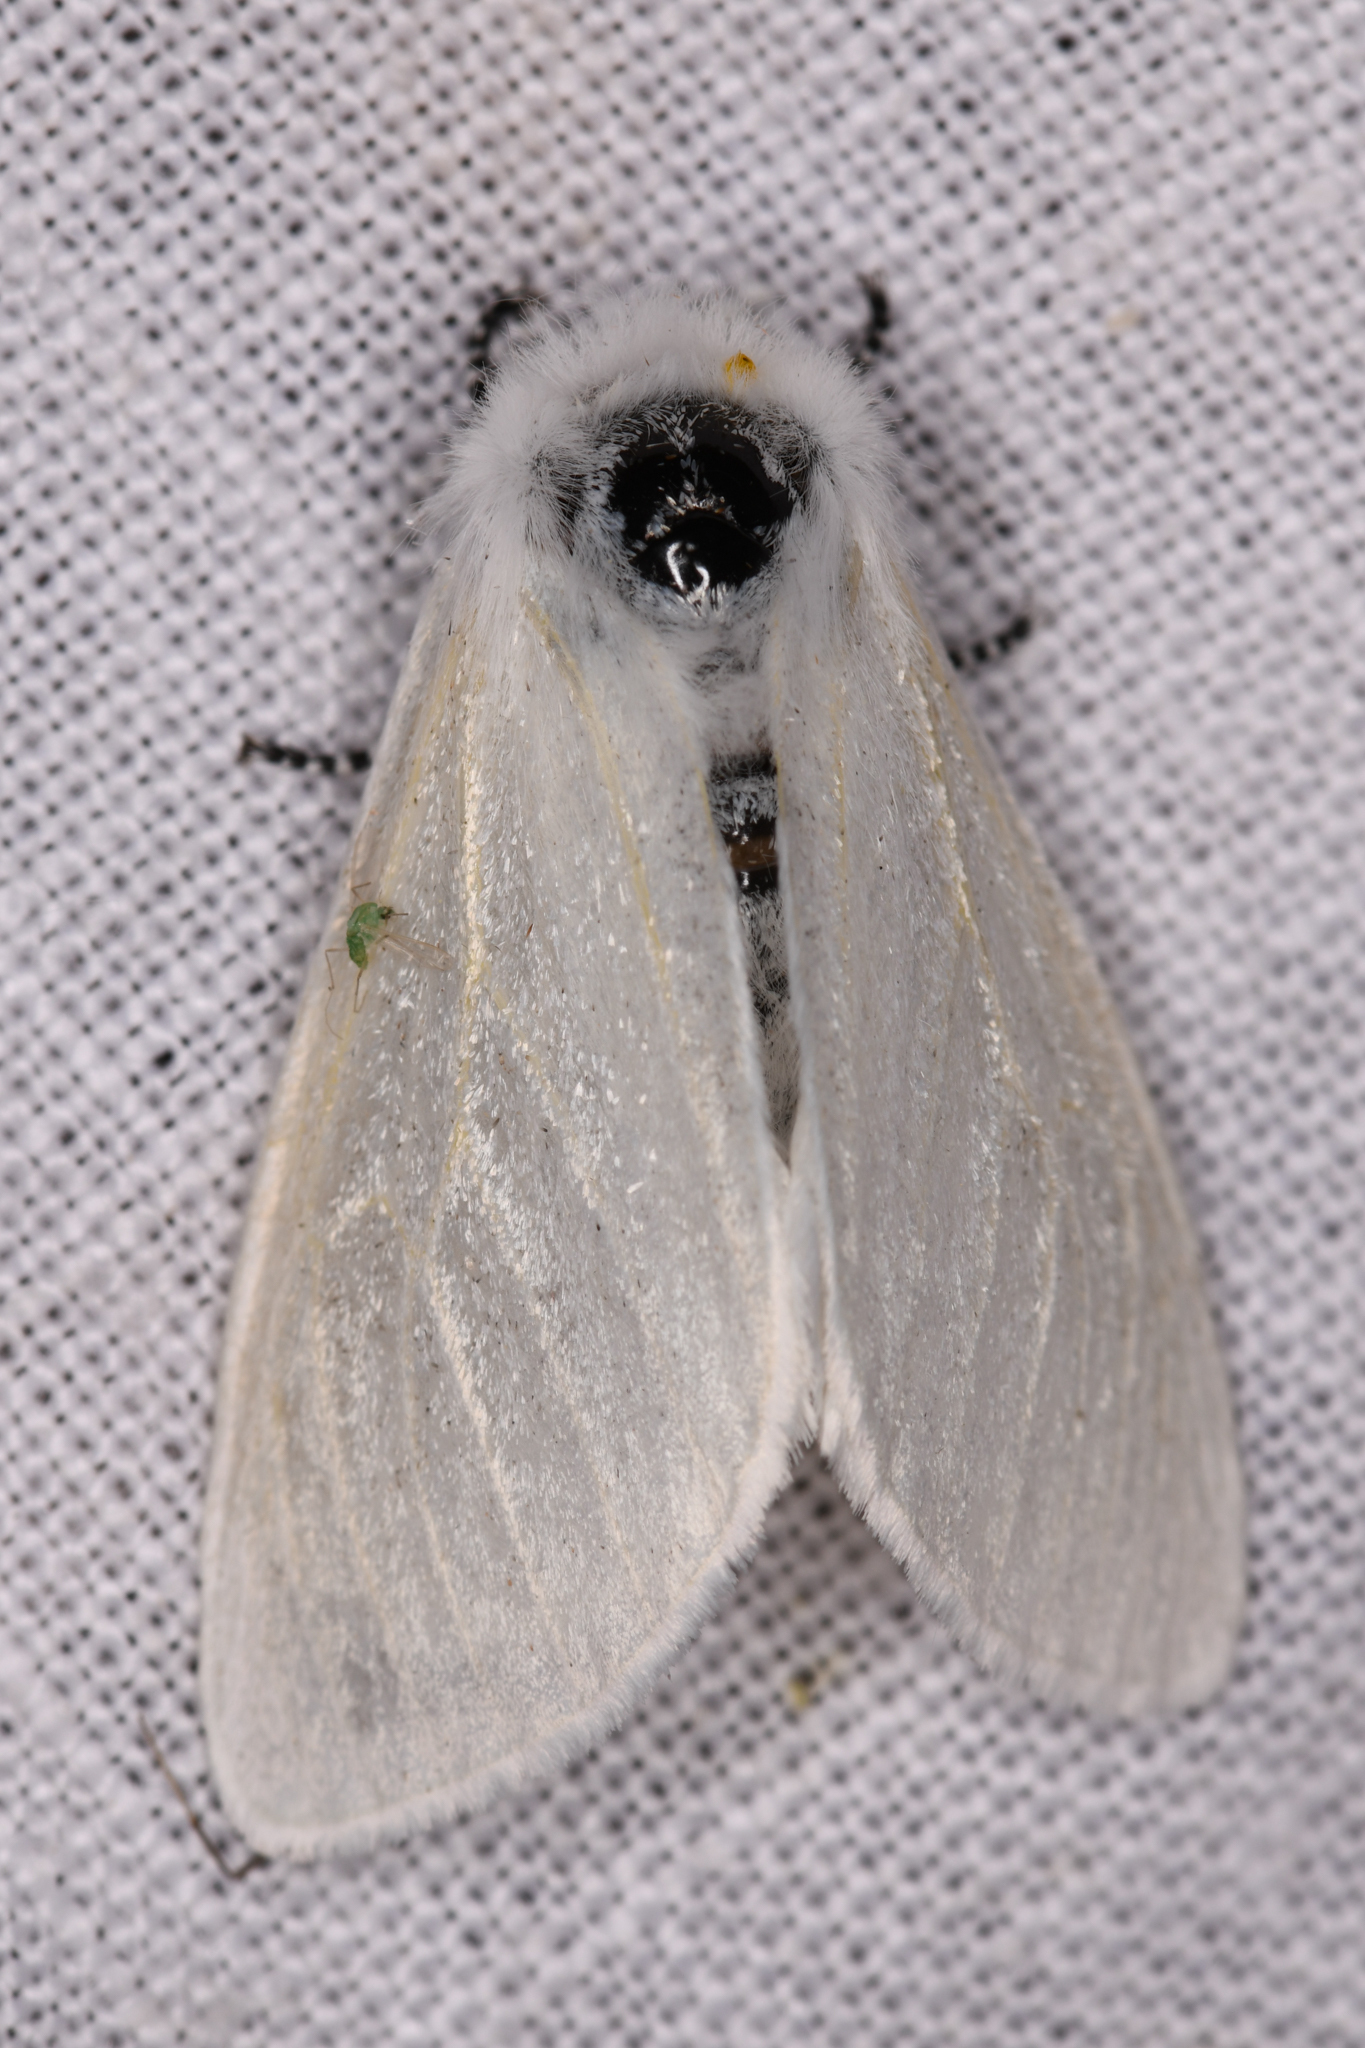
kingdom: Animalia
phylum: Arthropoda
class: Insecta
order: Lepidoptera
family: Erebidae
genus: Leucoma
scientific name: Leucoma salicis
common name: White satin moth
